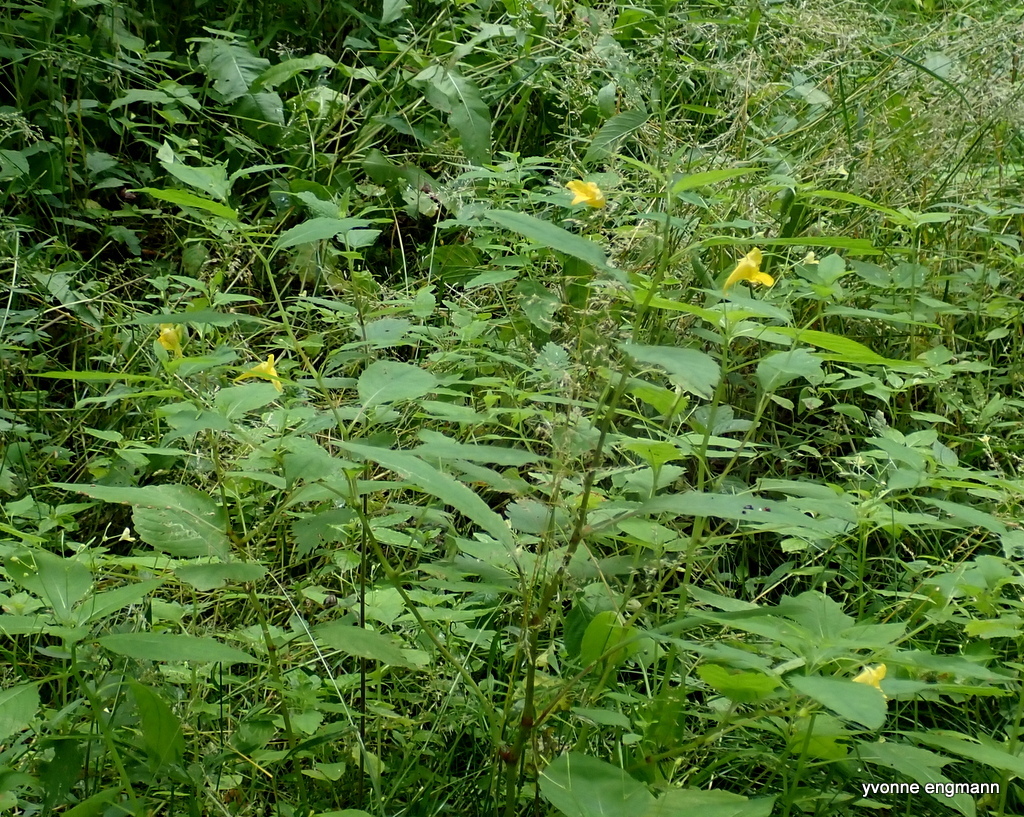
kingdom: Plantae
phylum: Tracheophyta
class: Magnoliopsida
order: Ericales
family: Balsaminaceae
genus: Impatiens
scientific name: Impatiens noli-tangere
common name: Touch-me-not balsam
